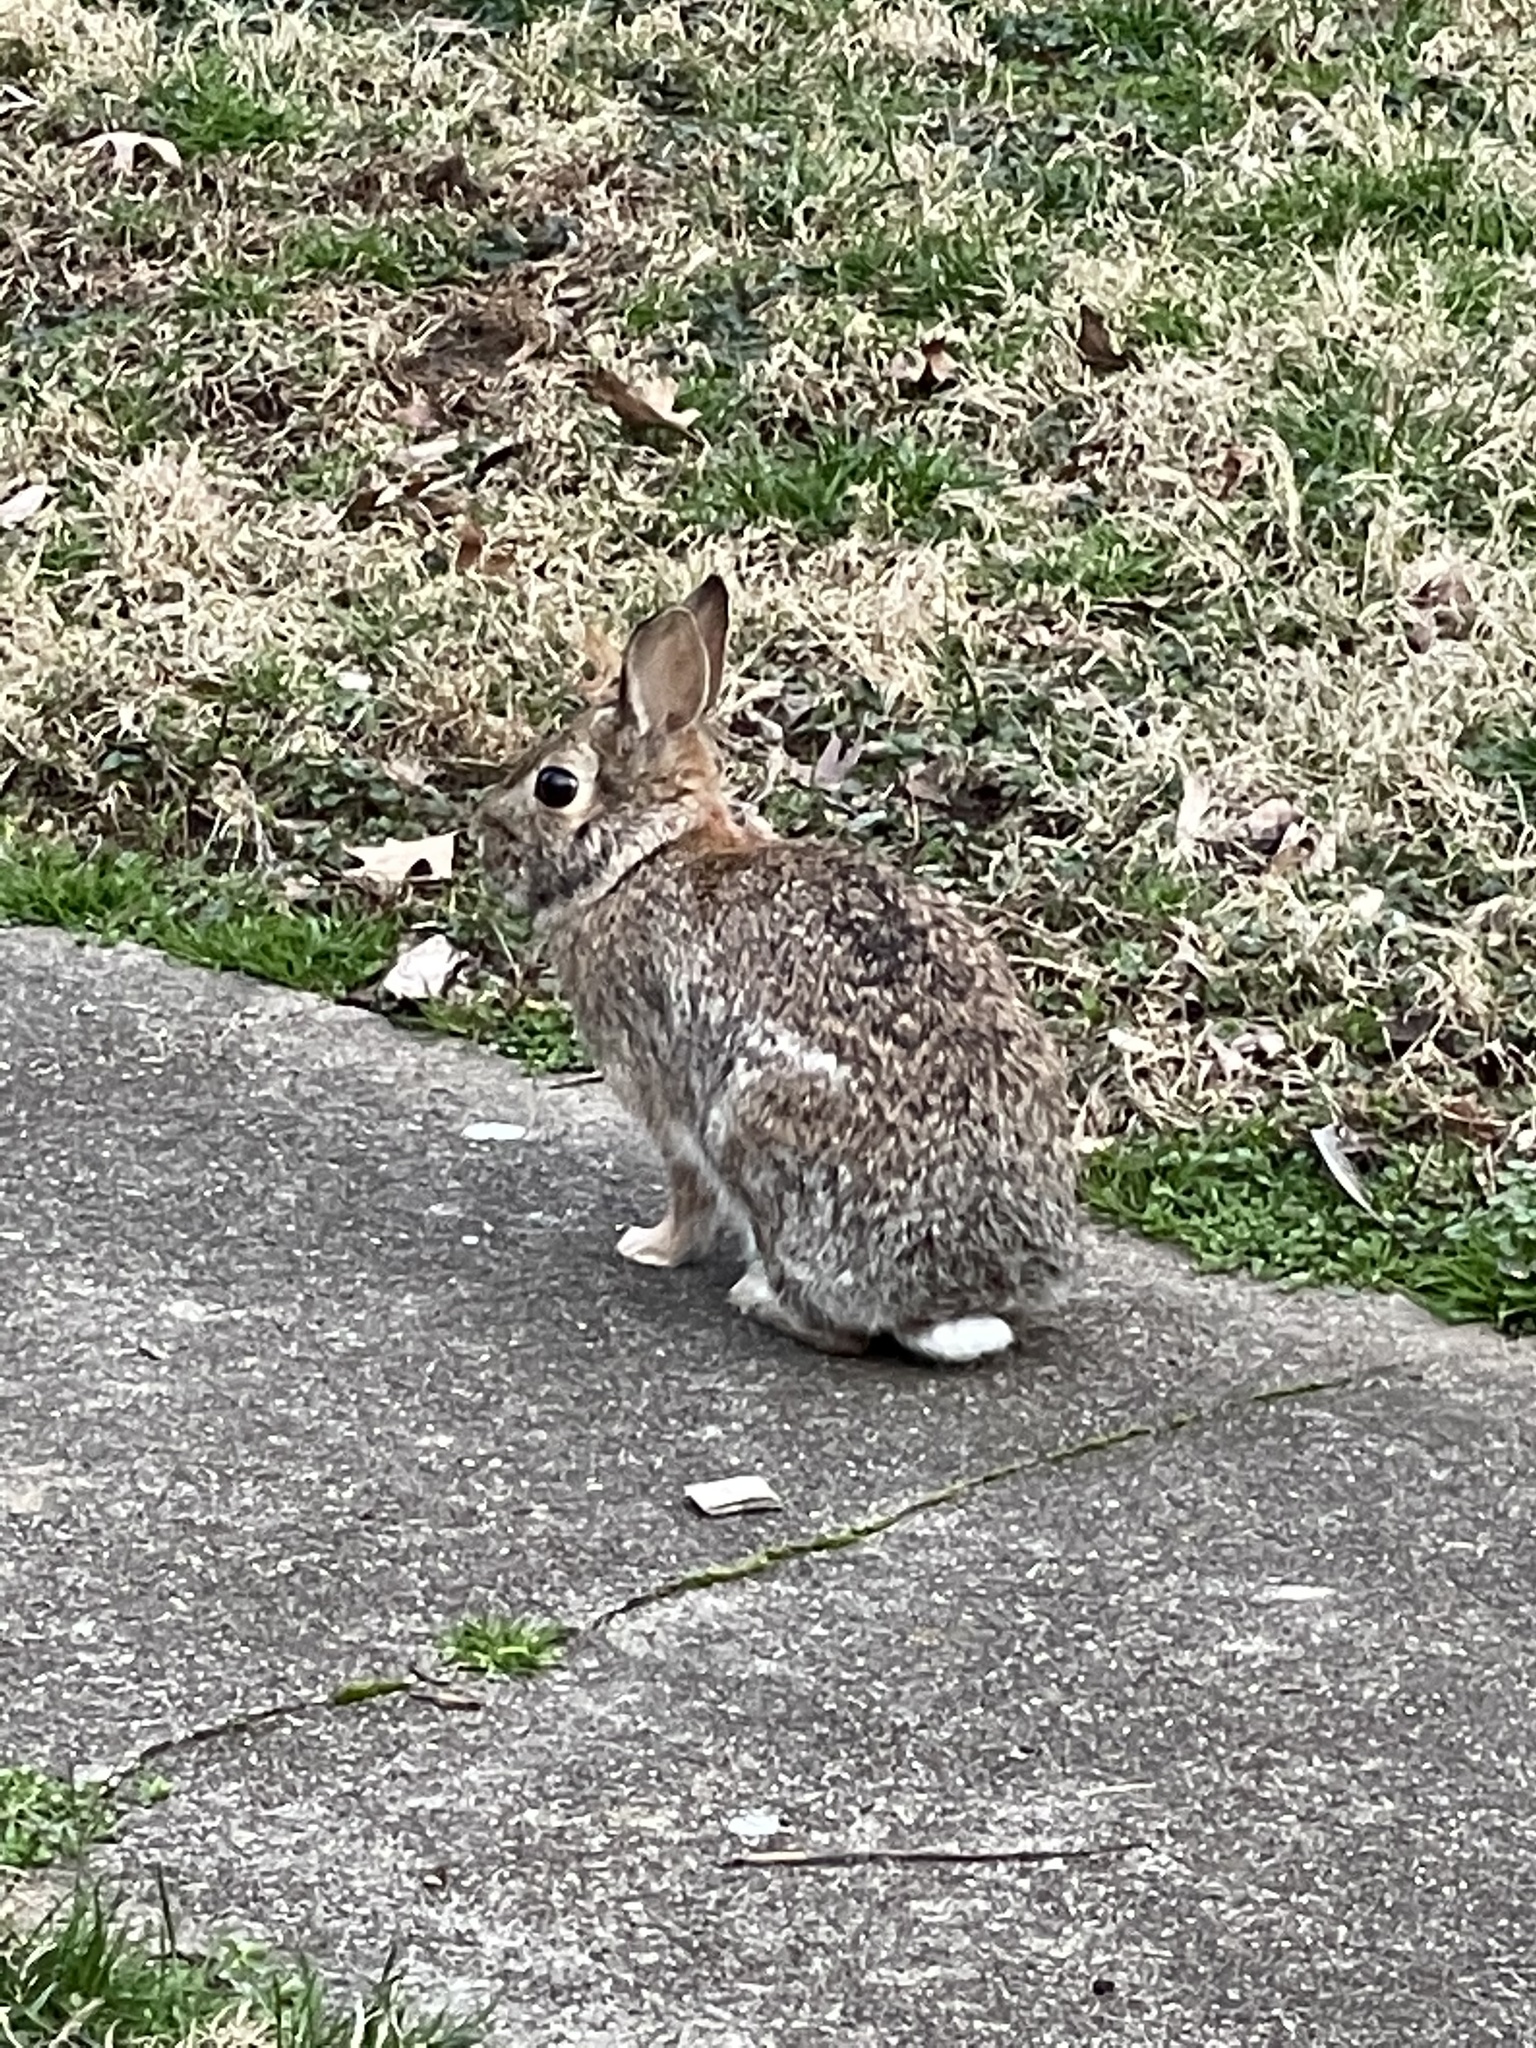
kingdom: Animalia
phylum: Chordata
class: Mammalia
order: Lagomorpha
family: Leporidae
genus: Sylvilagus
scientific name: Sylvilagus floridanus
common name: Eastern cottontail
